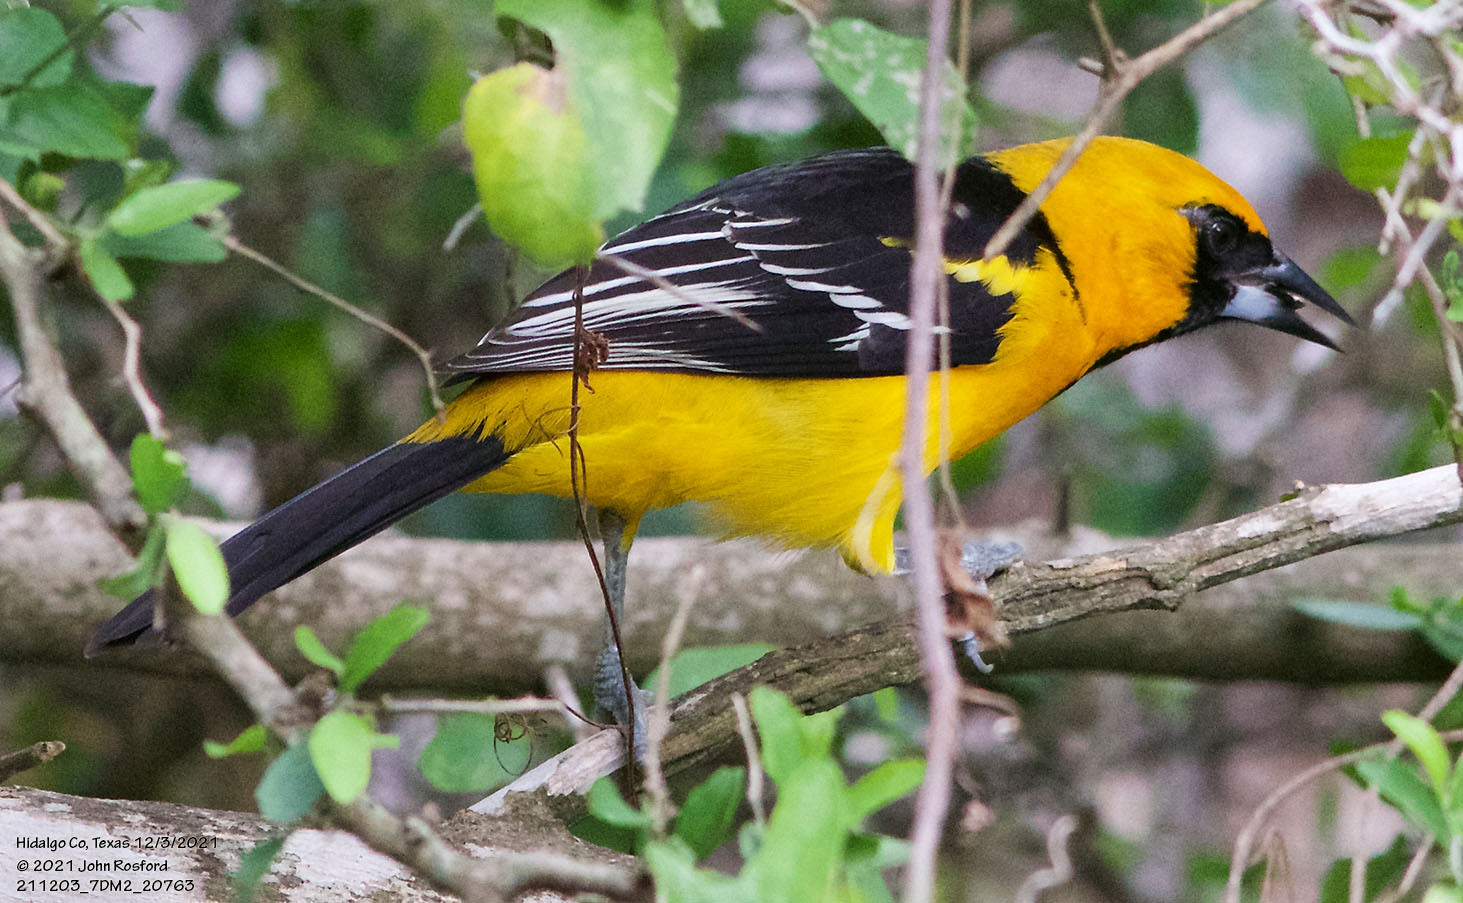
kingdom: Animalia
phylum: Chordata
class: Aves
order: Passeriformes
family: Icteridae
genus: Icterus
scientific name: Icterus gularis
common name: Altamira oriole
